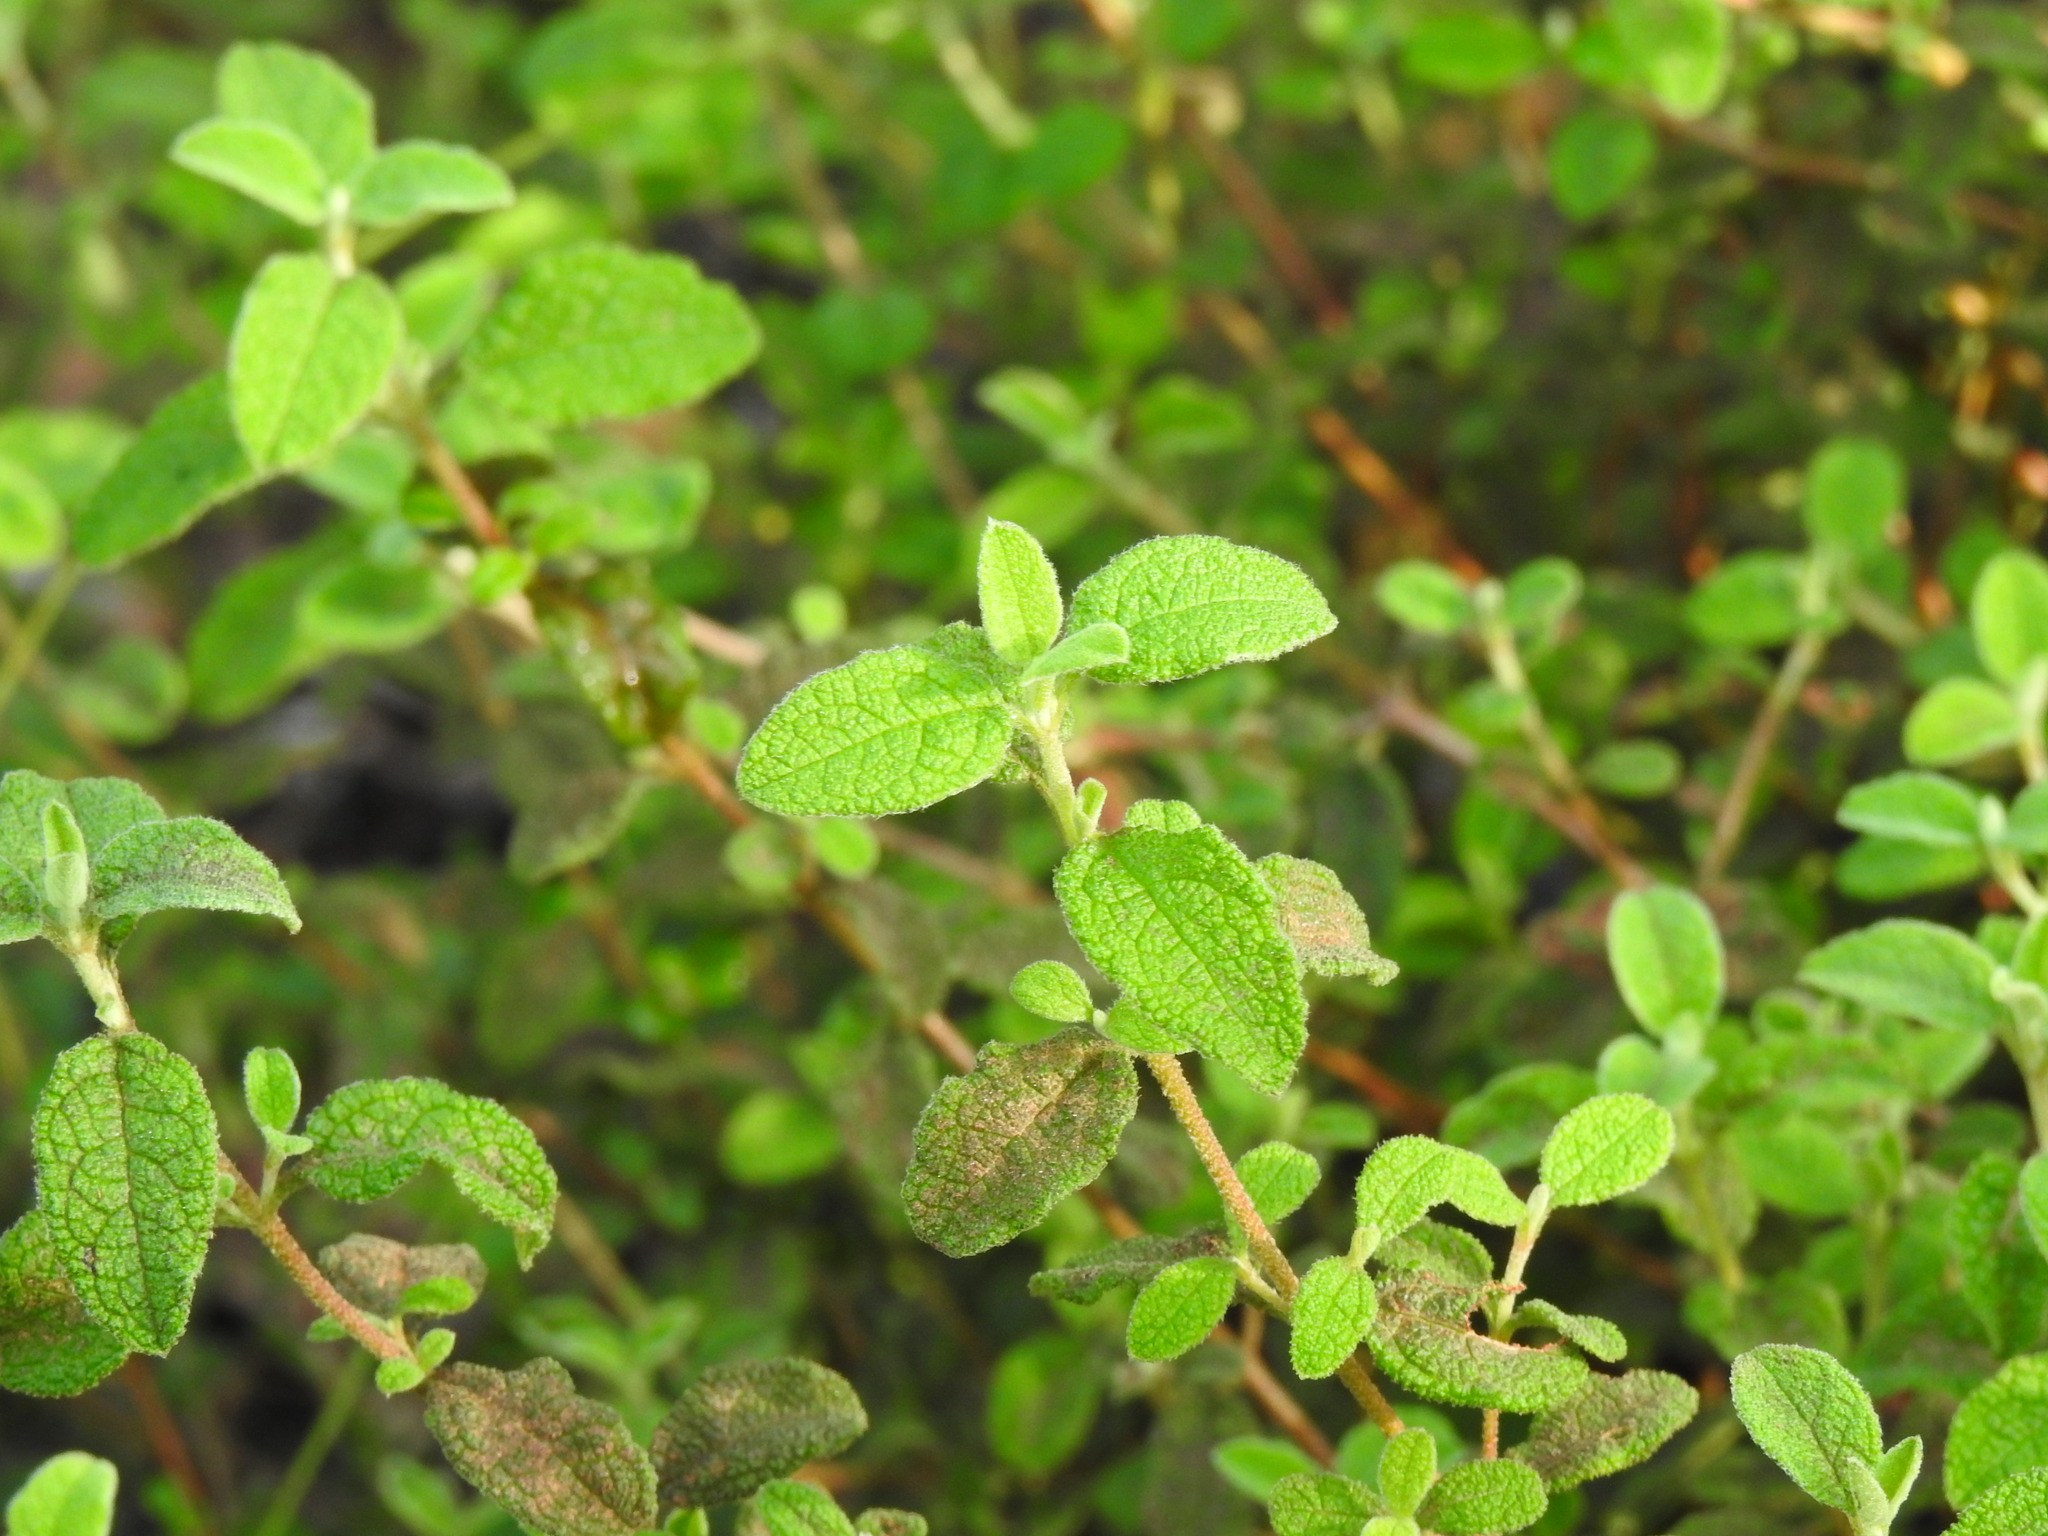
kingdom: Plantae
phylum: Tracheophyta
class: Magnoliopsida
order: Malvales
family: Cistaceae
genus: Cistus
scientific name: Cistus salviifolius
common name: Salvia cistus
